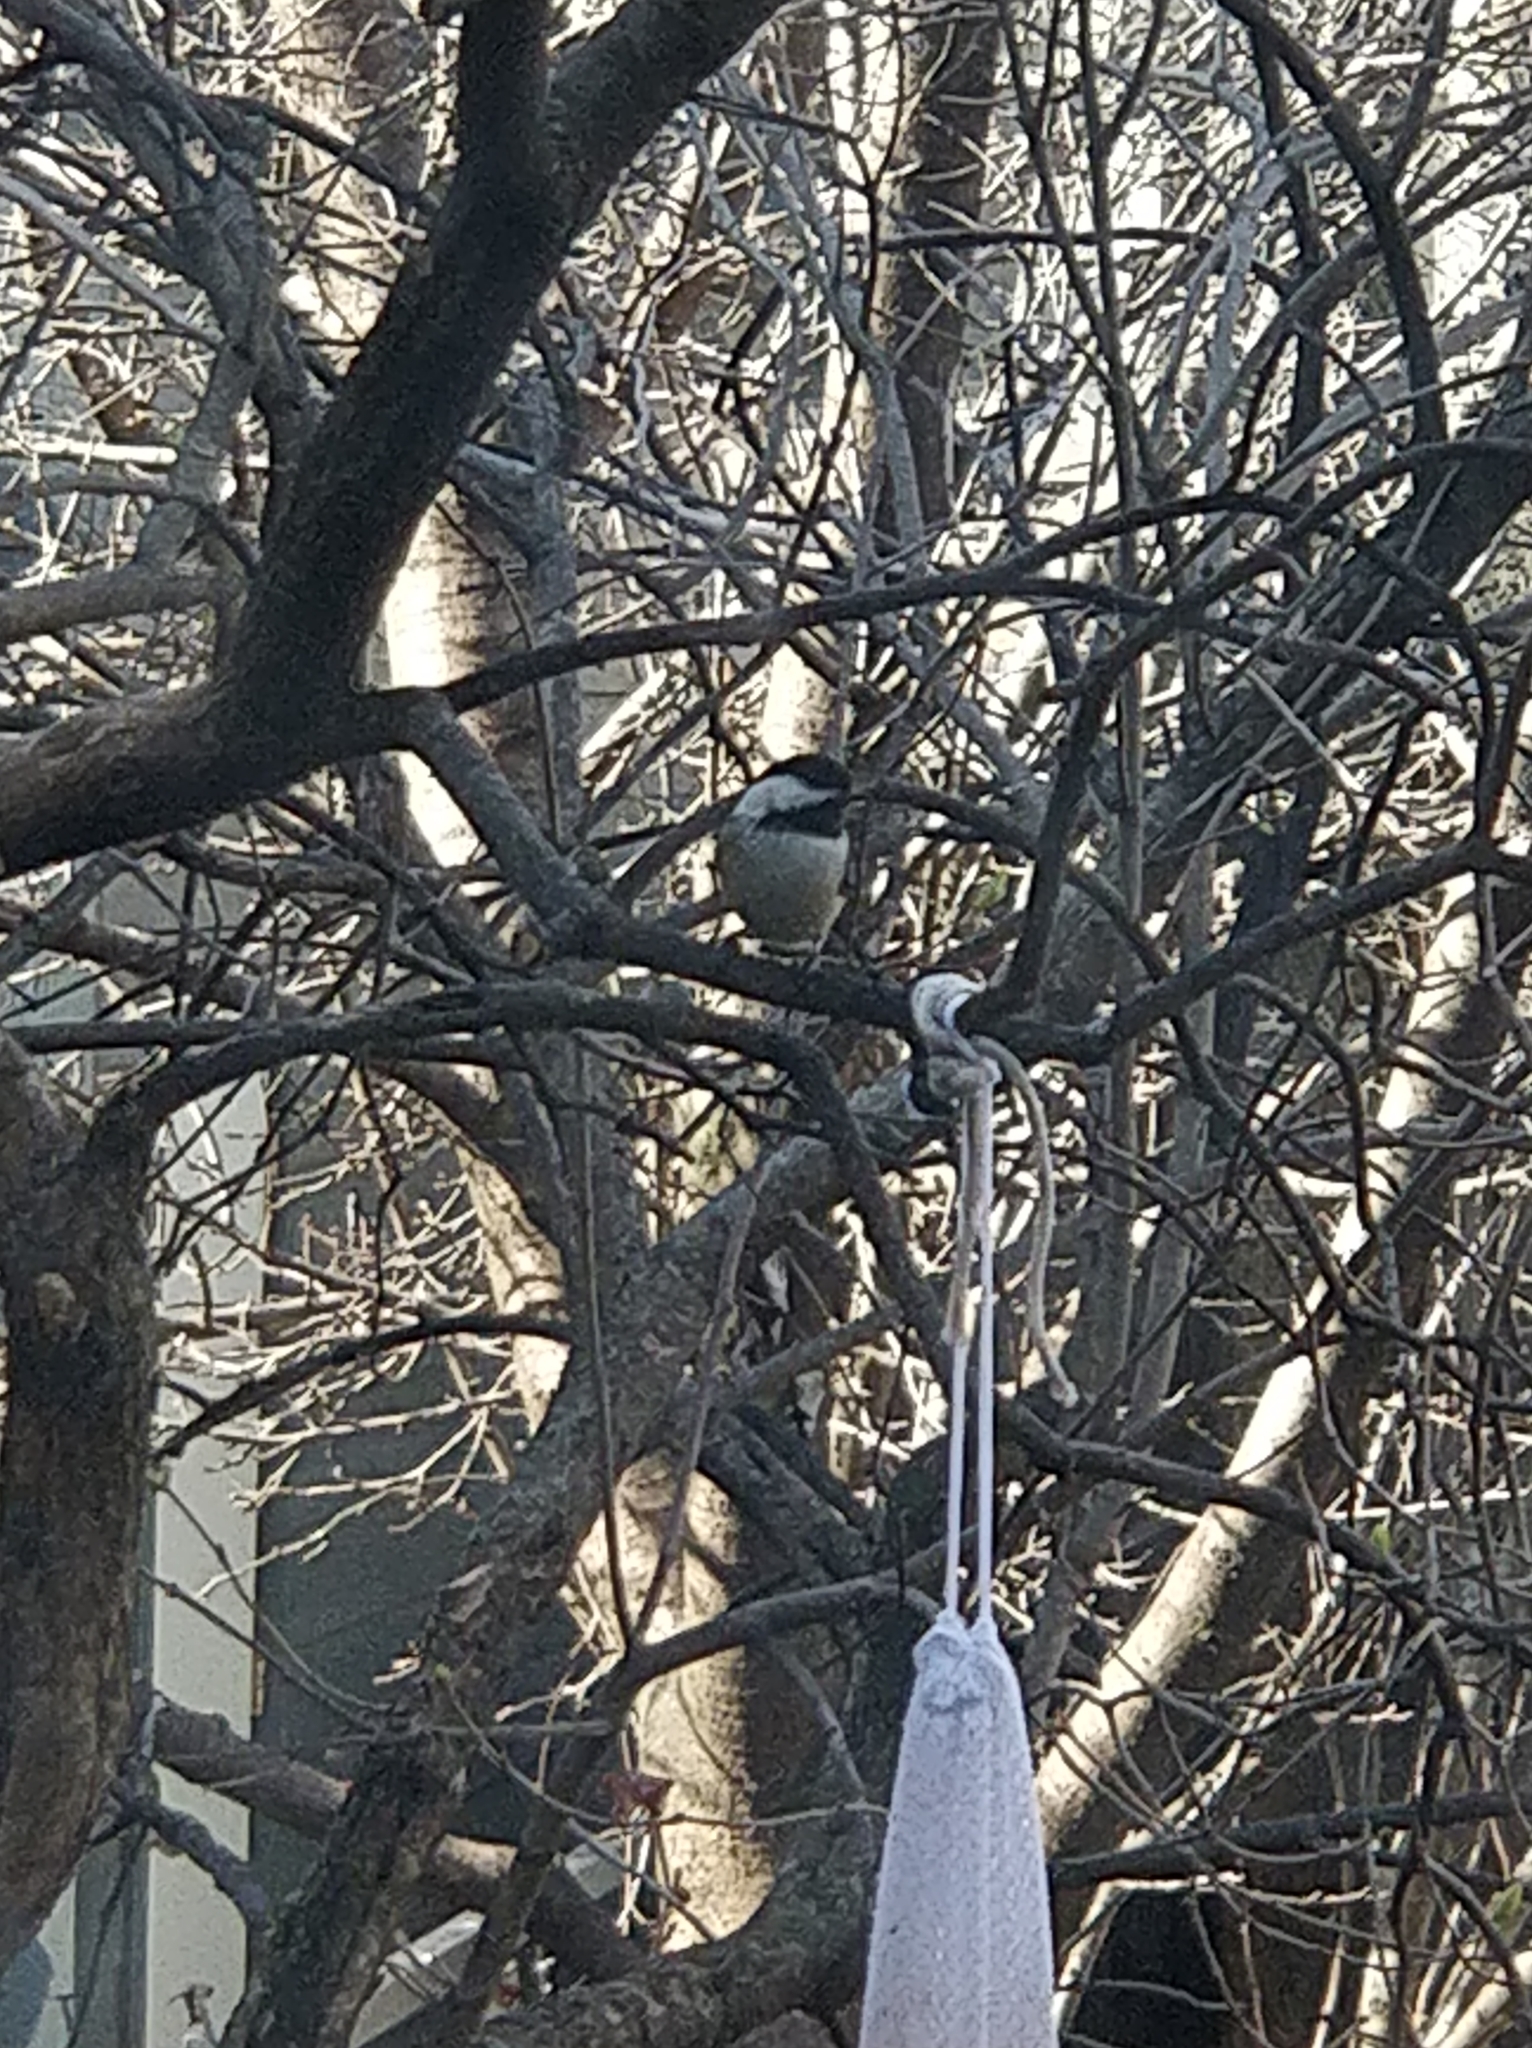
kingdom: Animalia
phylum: Chordata
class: Aves
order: Passeriformes
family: Paridae
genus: Poecile
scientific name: Poecile atricapillus
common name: Black-capped chickadee
